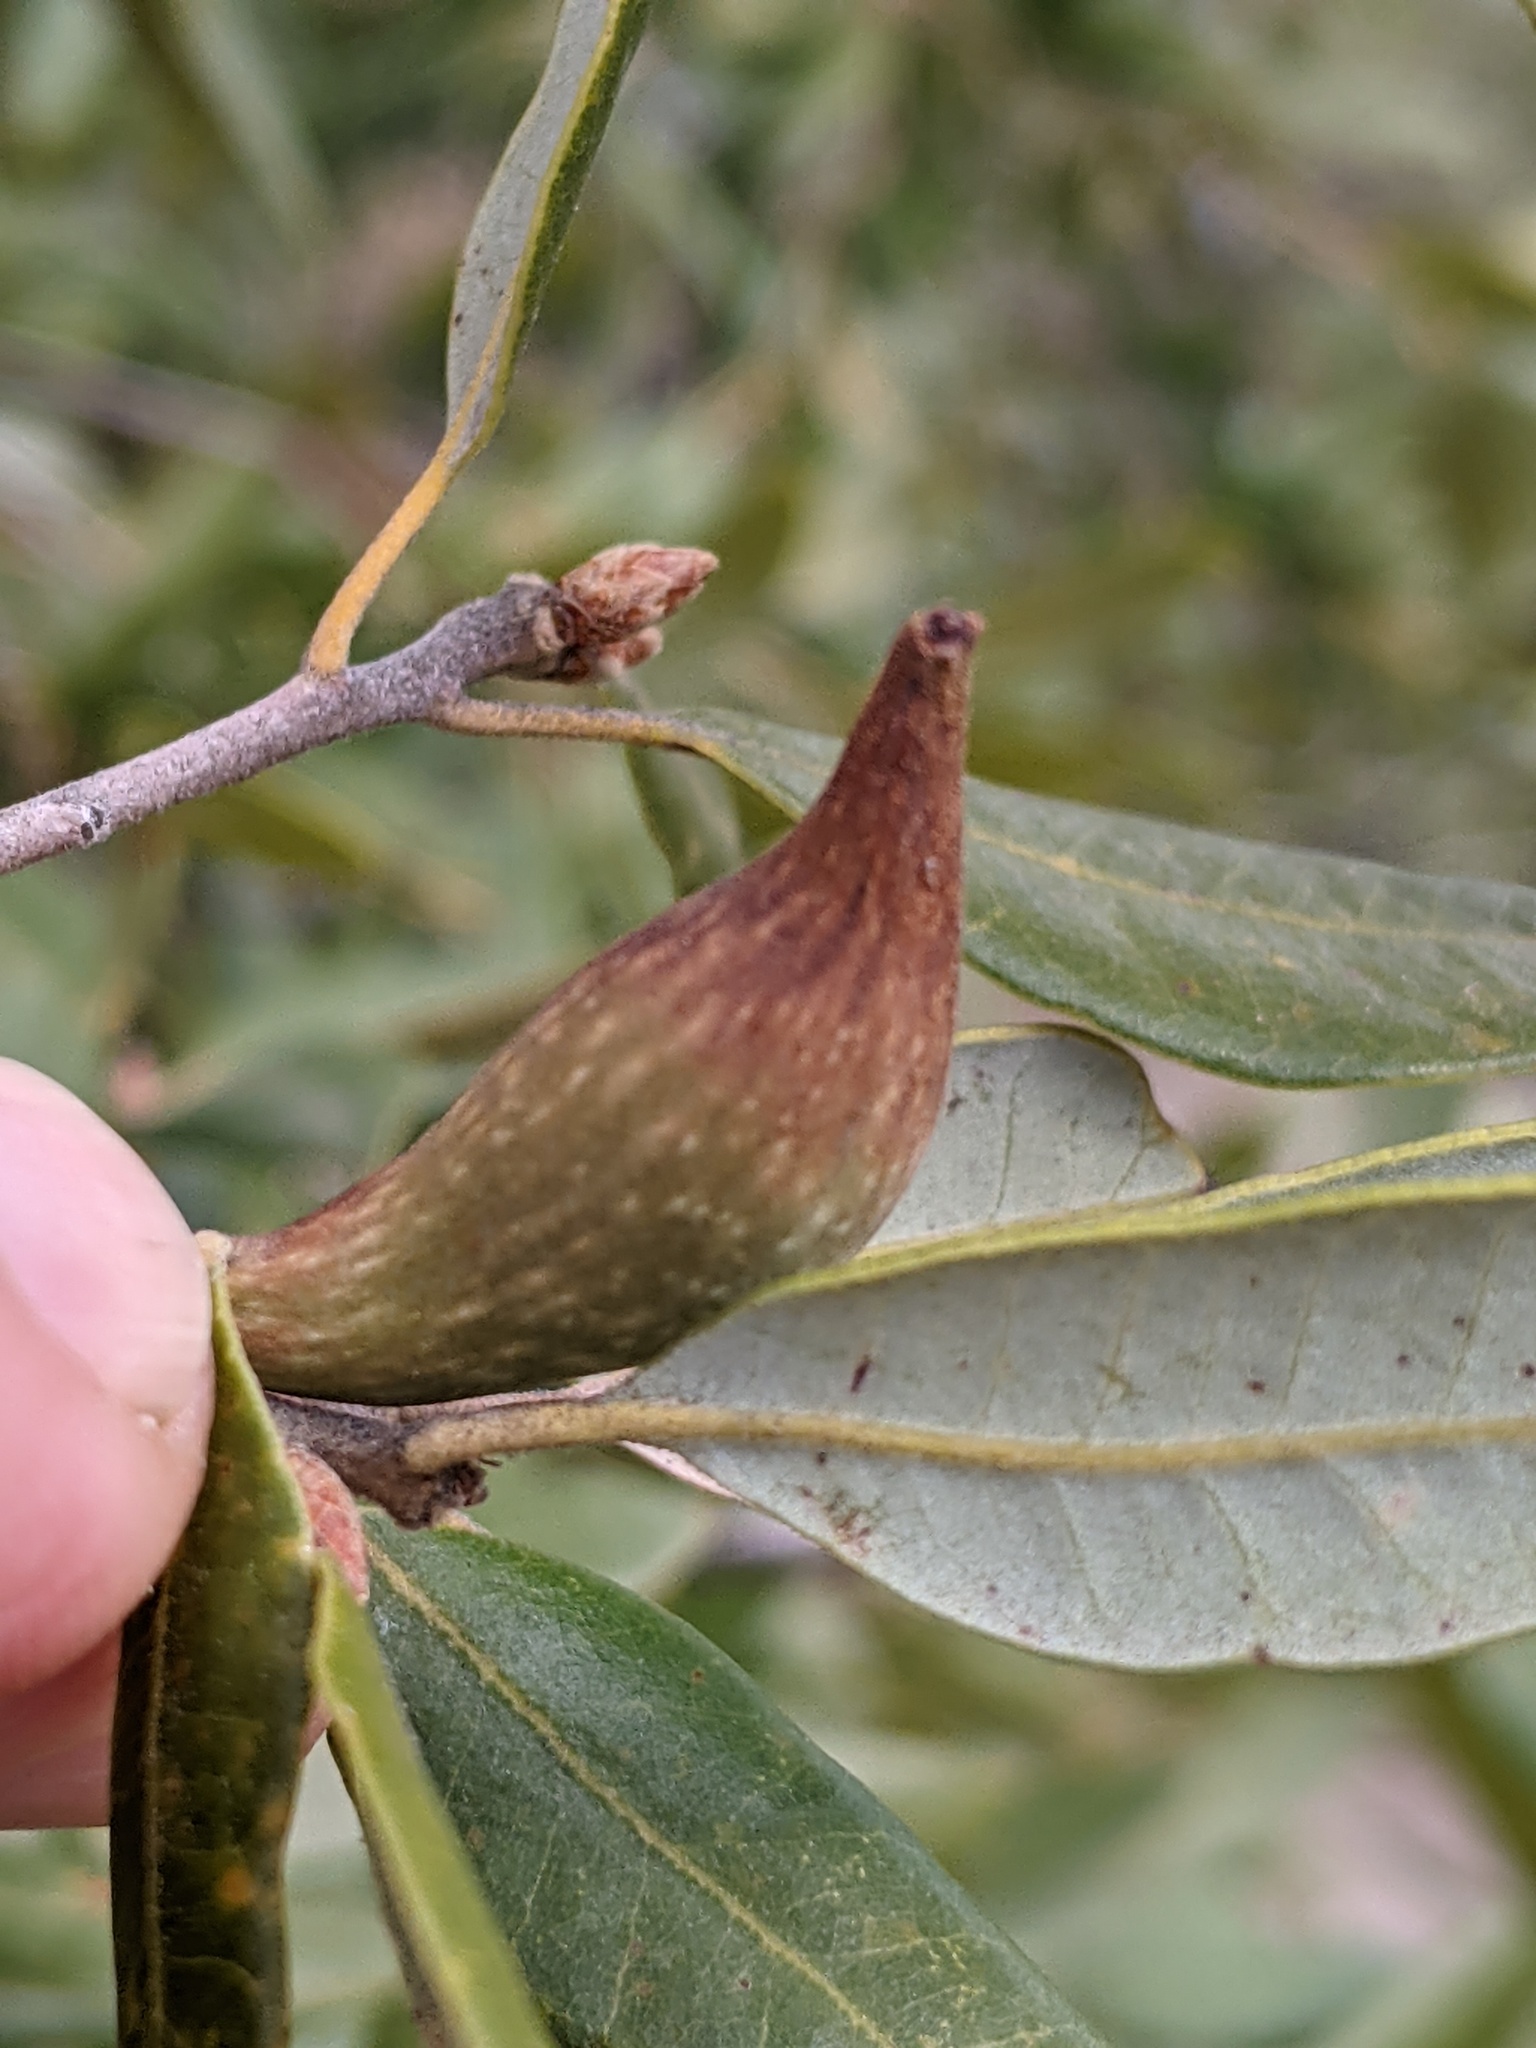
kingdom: Animalia
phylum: Arthropoda
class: Insecta
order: Hymenoptera
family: Cynipidae
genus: Heteroecus
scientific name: Heteroecus pacificus
